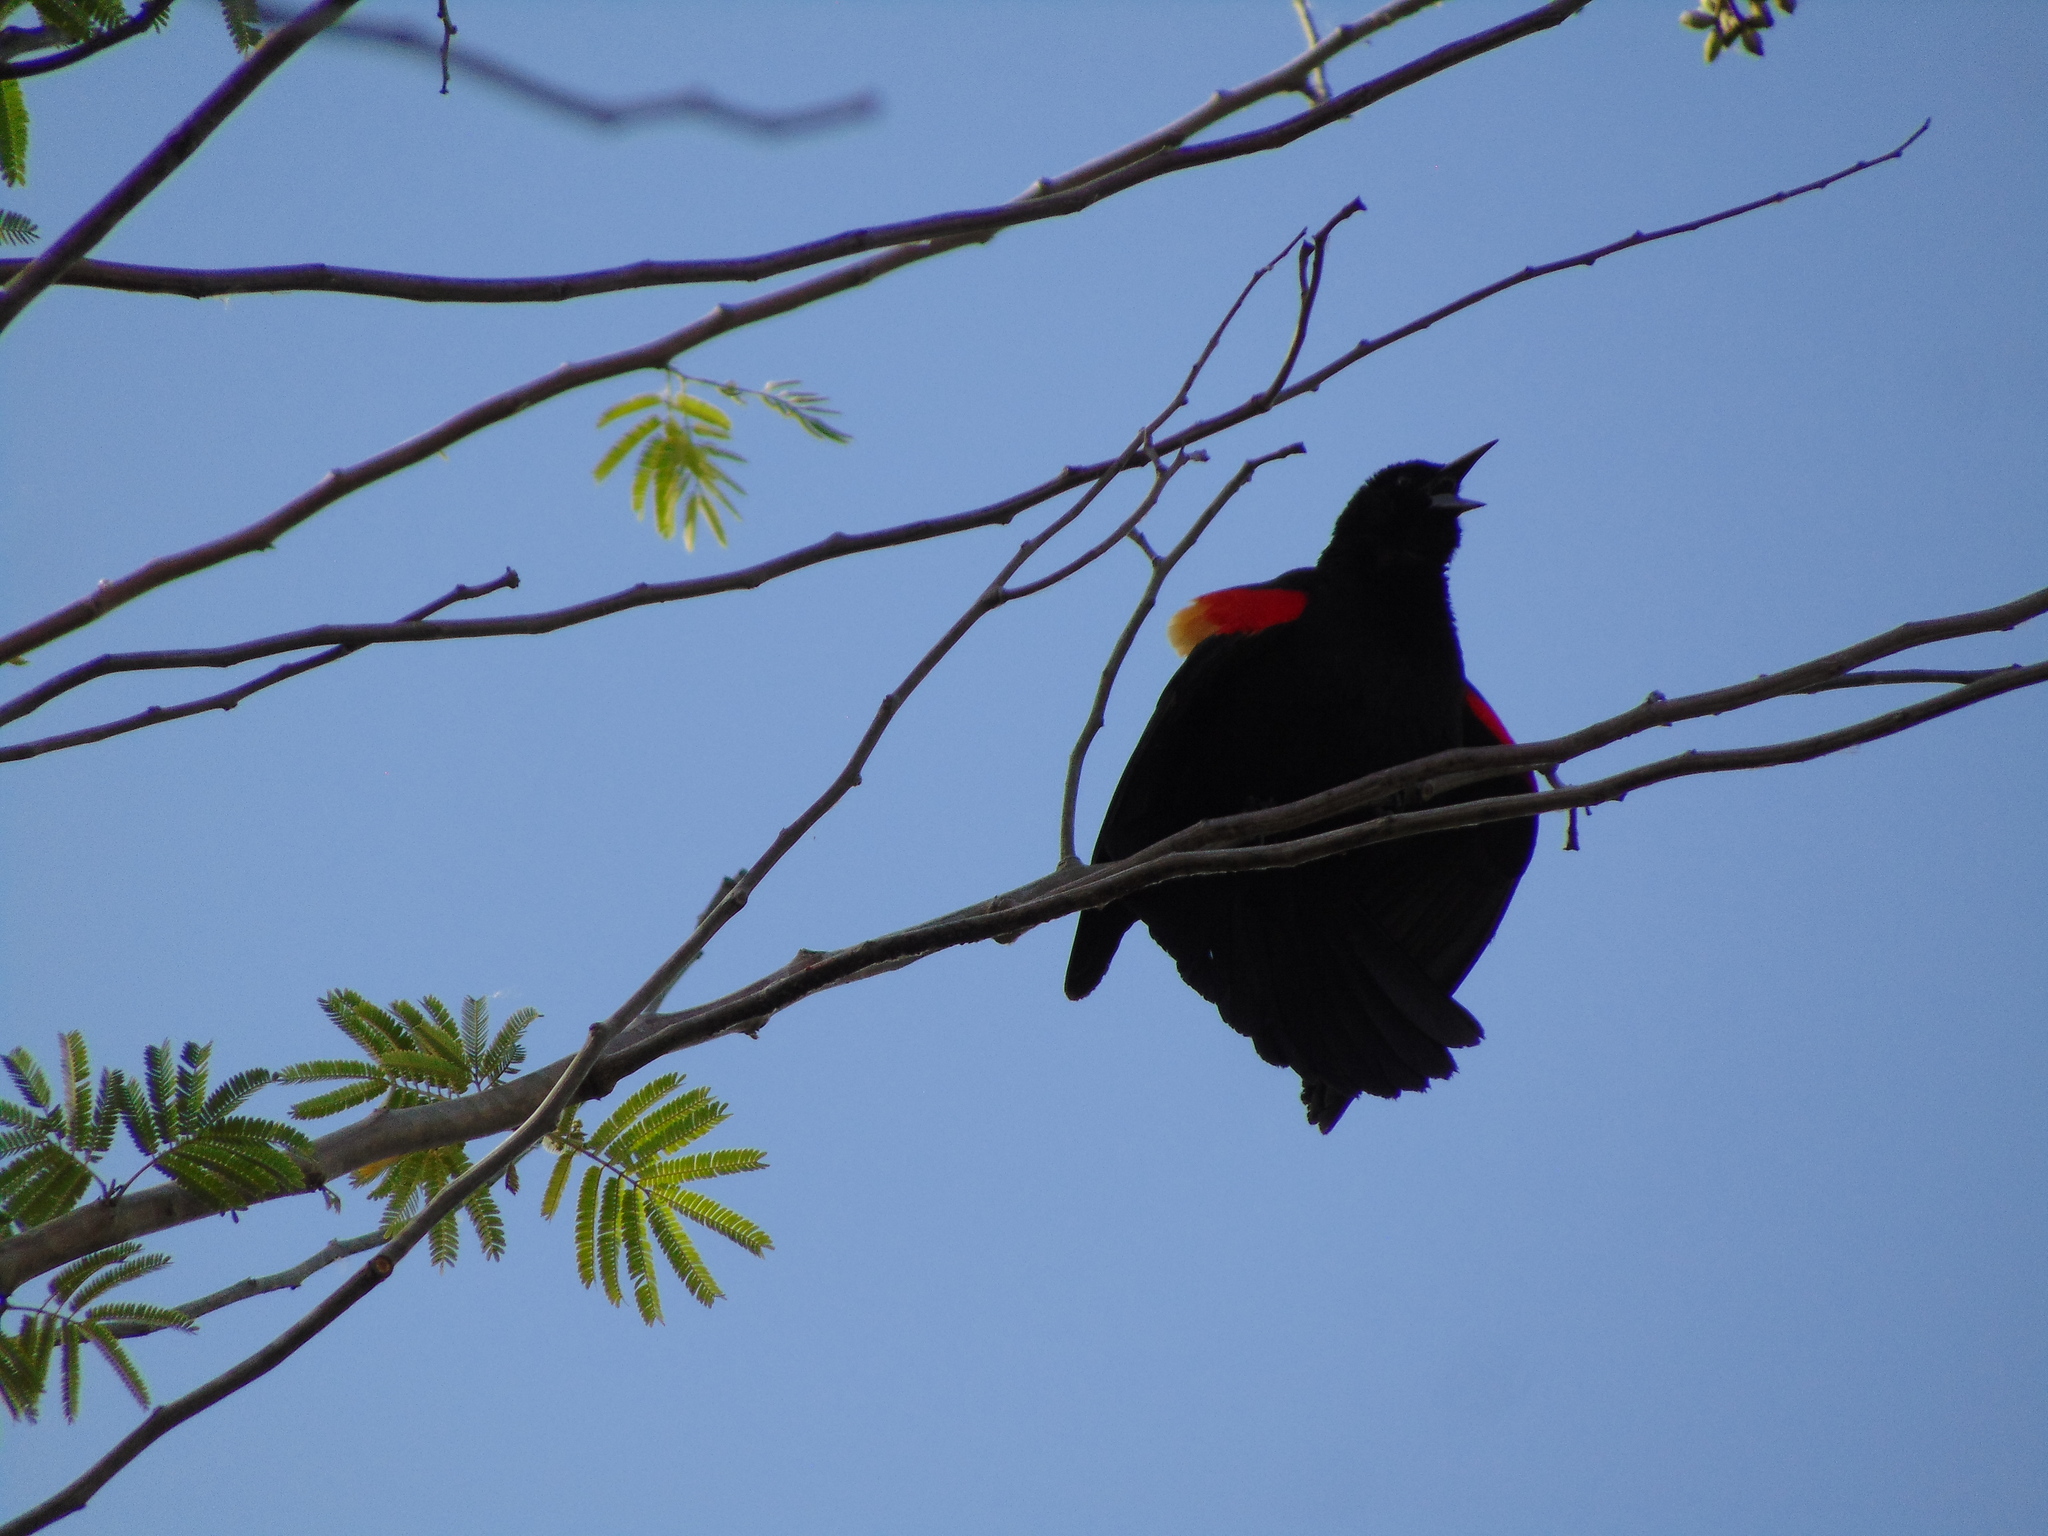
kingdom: Animalia
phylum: Chordata
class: Aves
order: Passeriformes
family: Icteridae
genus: Agelaius
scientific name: Agelaius phoeniceus
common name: Red-winged blackbird
